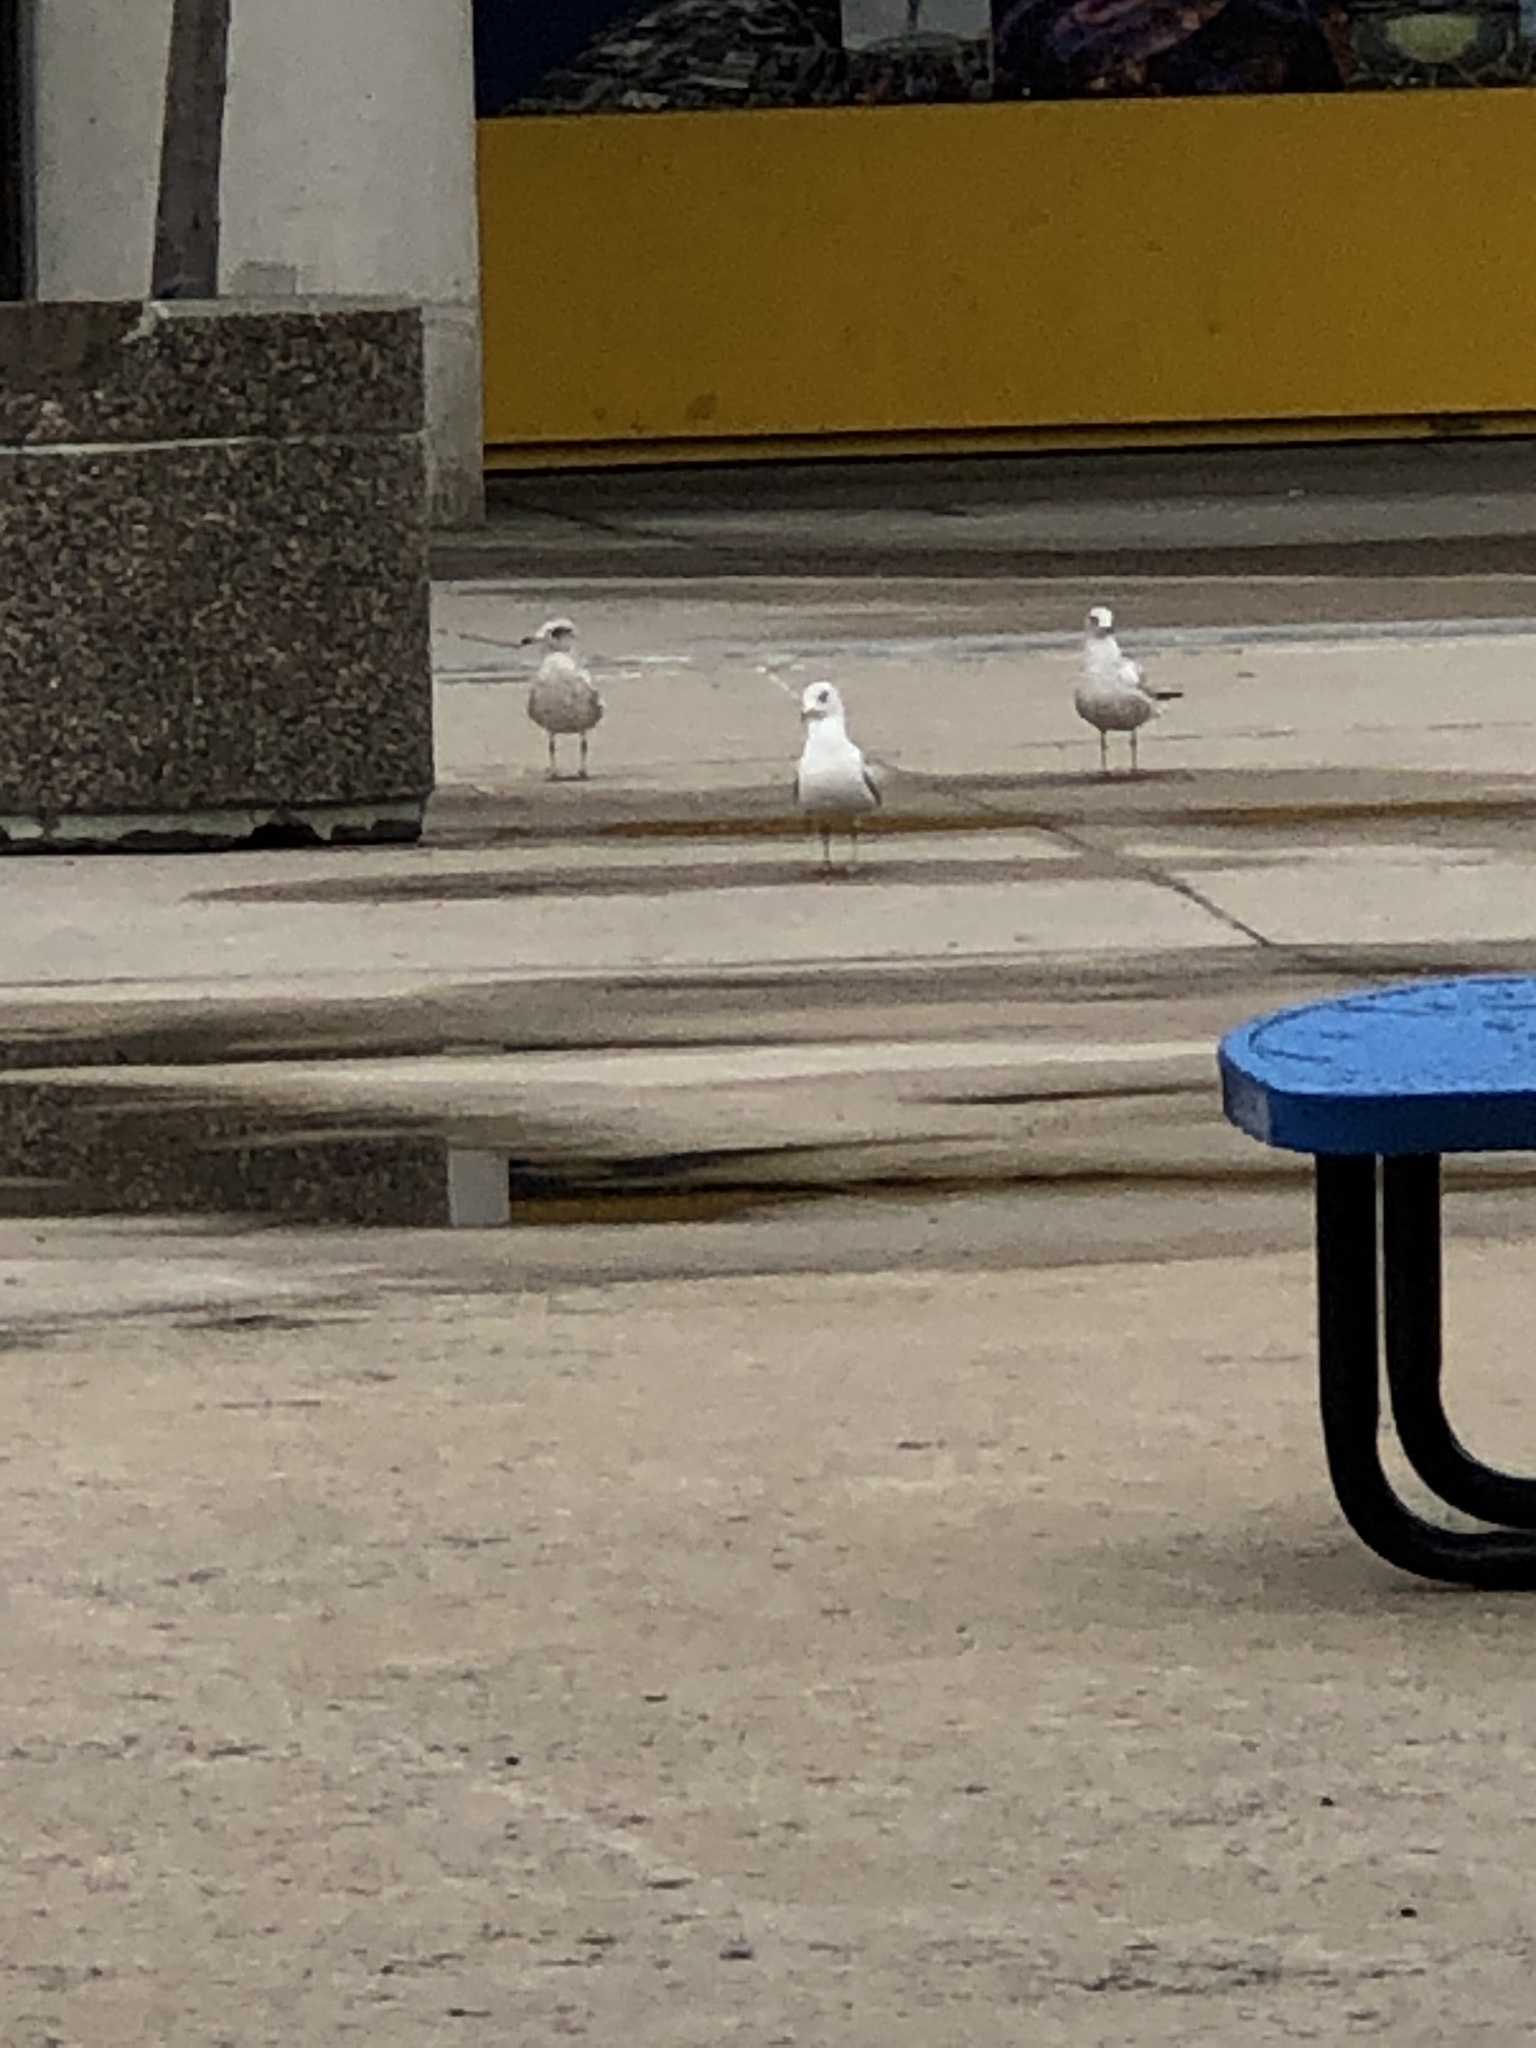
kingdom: Animalia
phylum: Chordata
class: Aves
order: Charadriiformes
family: Laridae
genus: Larus
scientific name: Larus delawarensis
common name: Ring-billed gull
